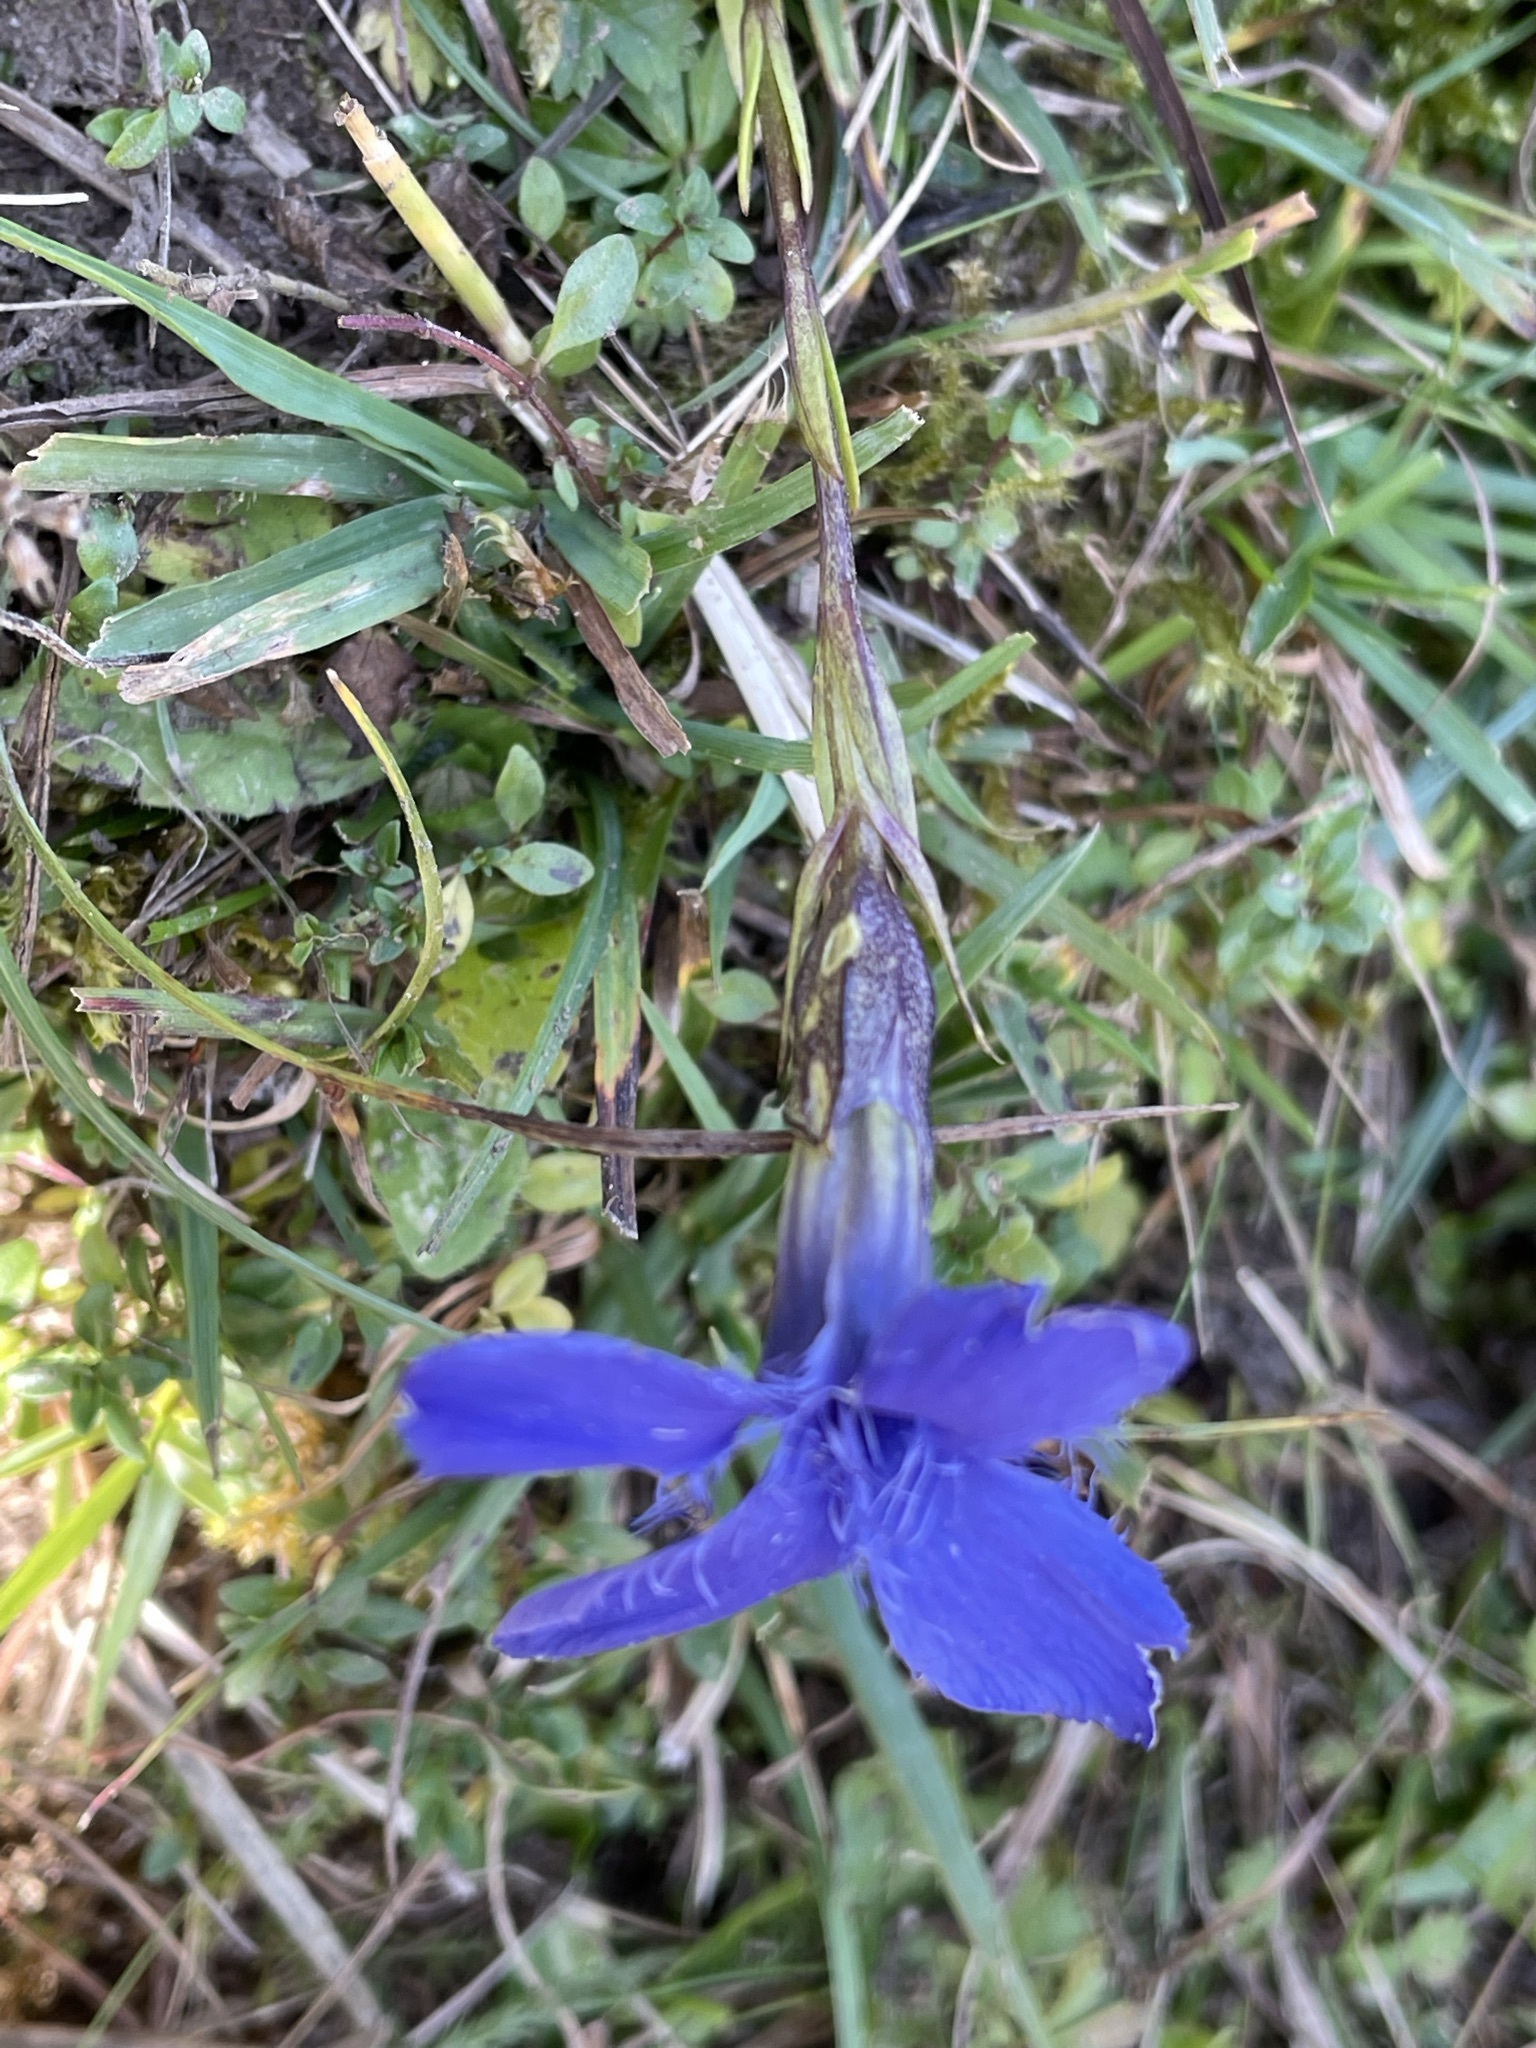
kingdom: Plantae
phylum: Tracheophyta
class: Magnoliopsida
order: Gentianales
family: Gentianaceae
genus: Gentianopsis
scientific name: Gentianopsis ciliata
